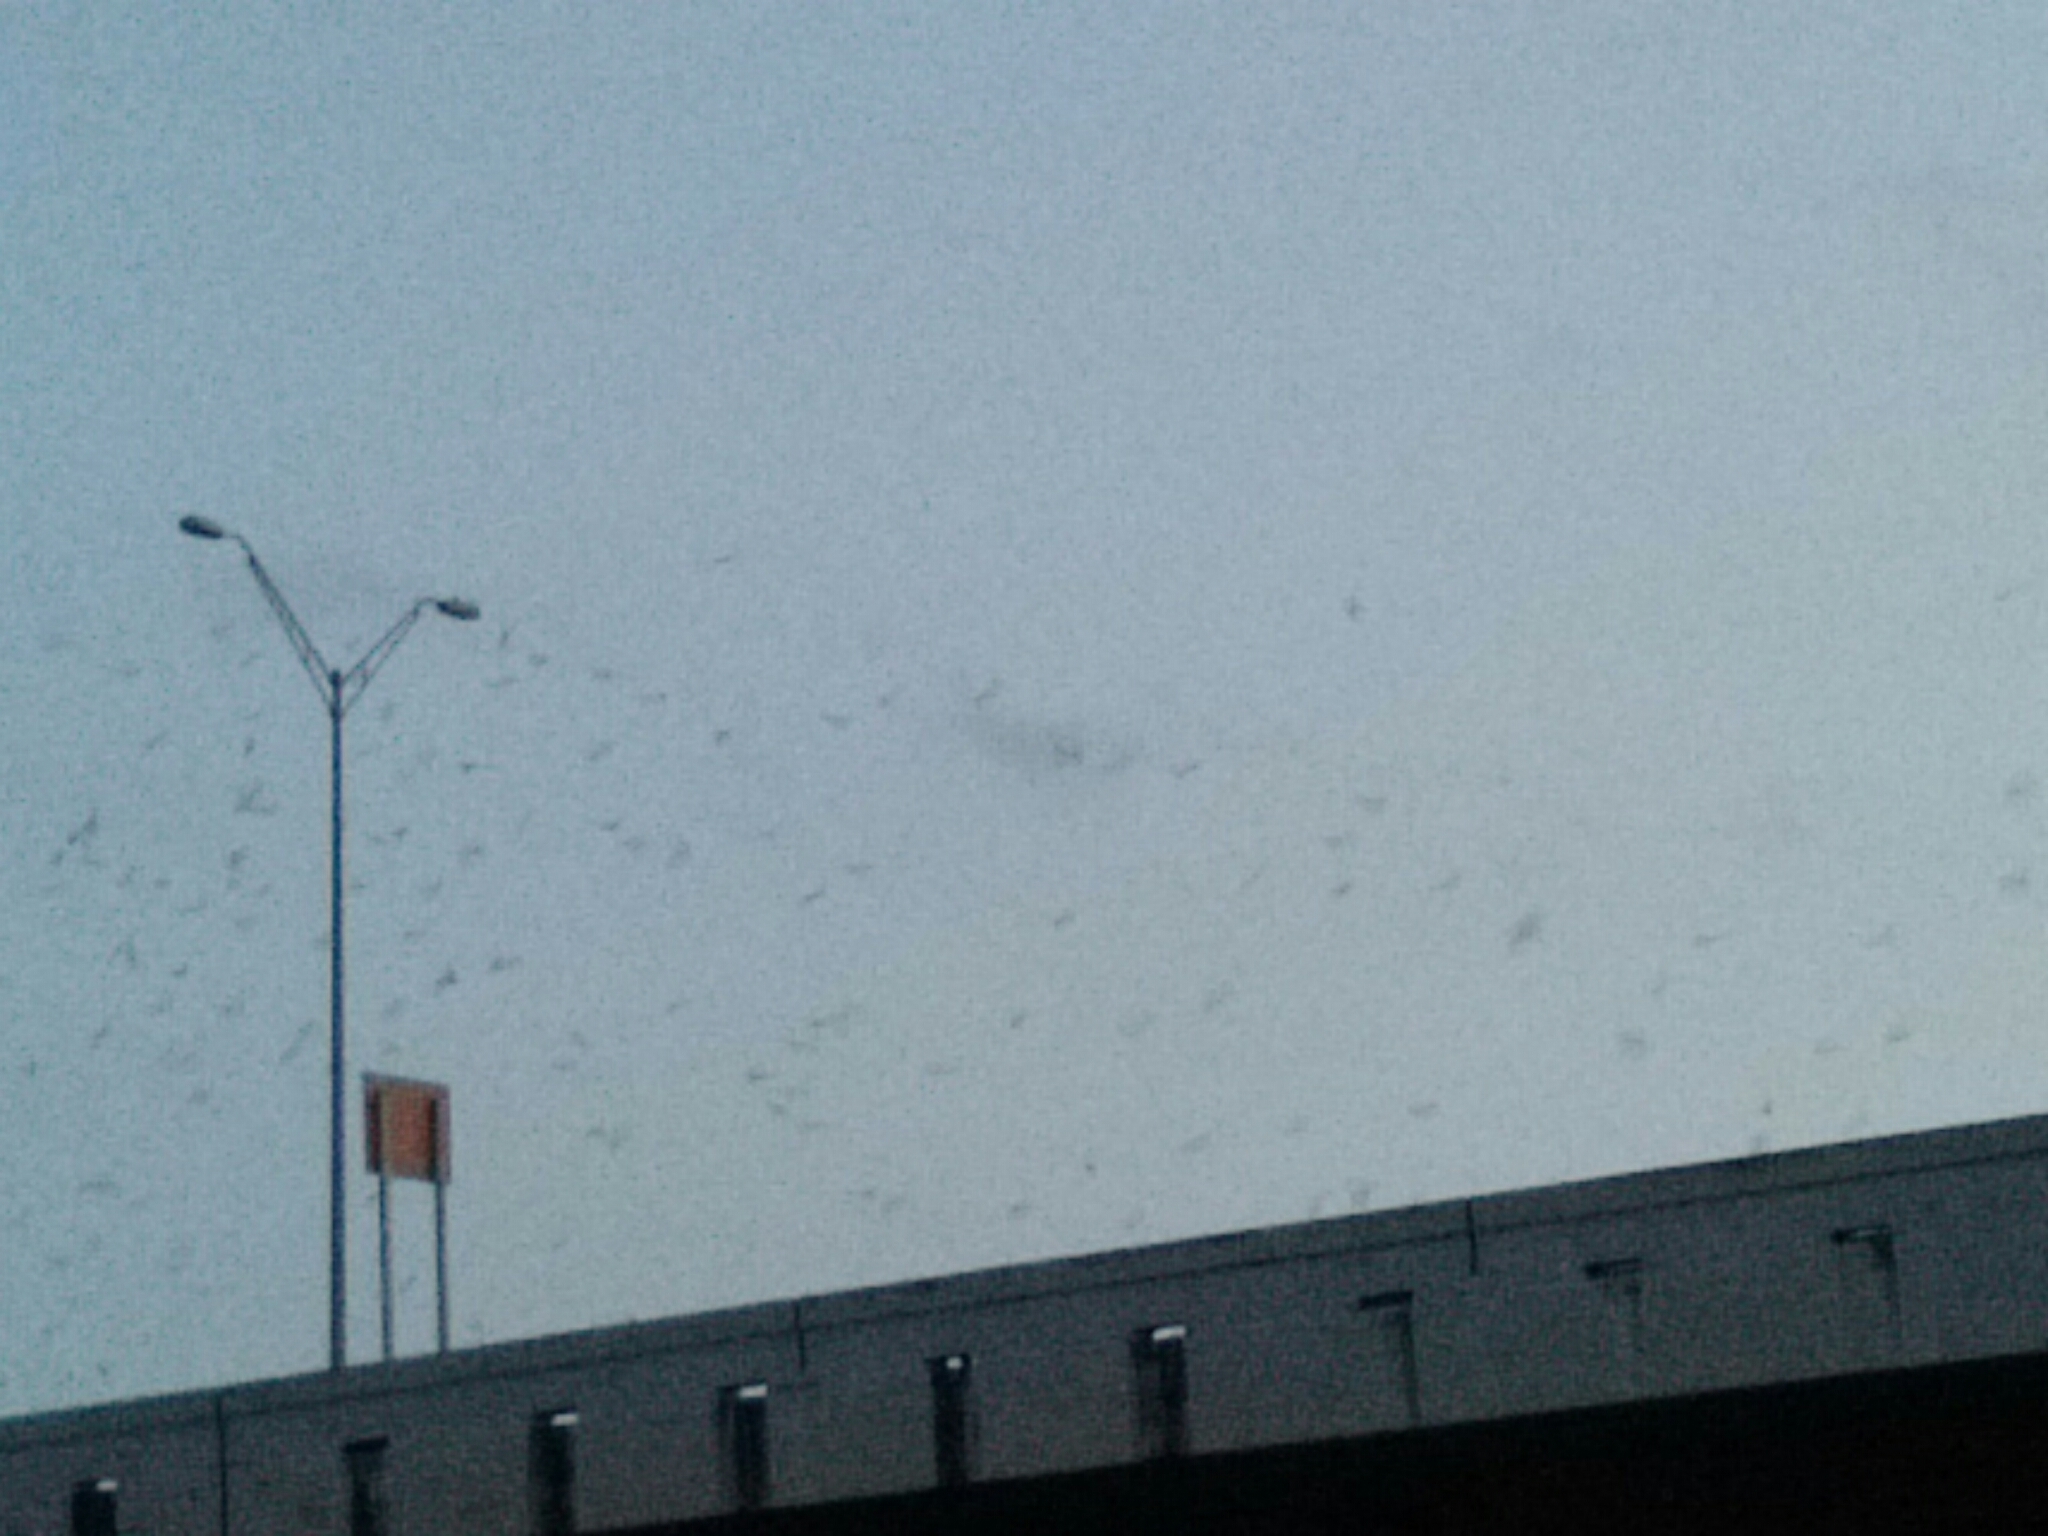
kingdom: Animalia
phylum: Chordata
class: Mammalia
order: Chiroptera
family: Molossidae
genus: Tadarida
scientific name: Tadarida brasiliensis
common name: Mexican free-tailed bat
